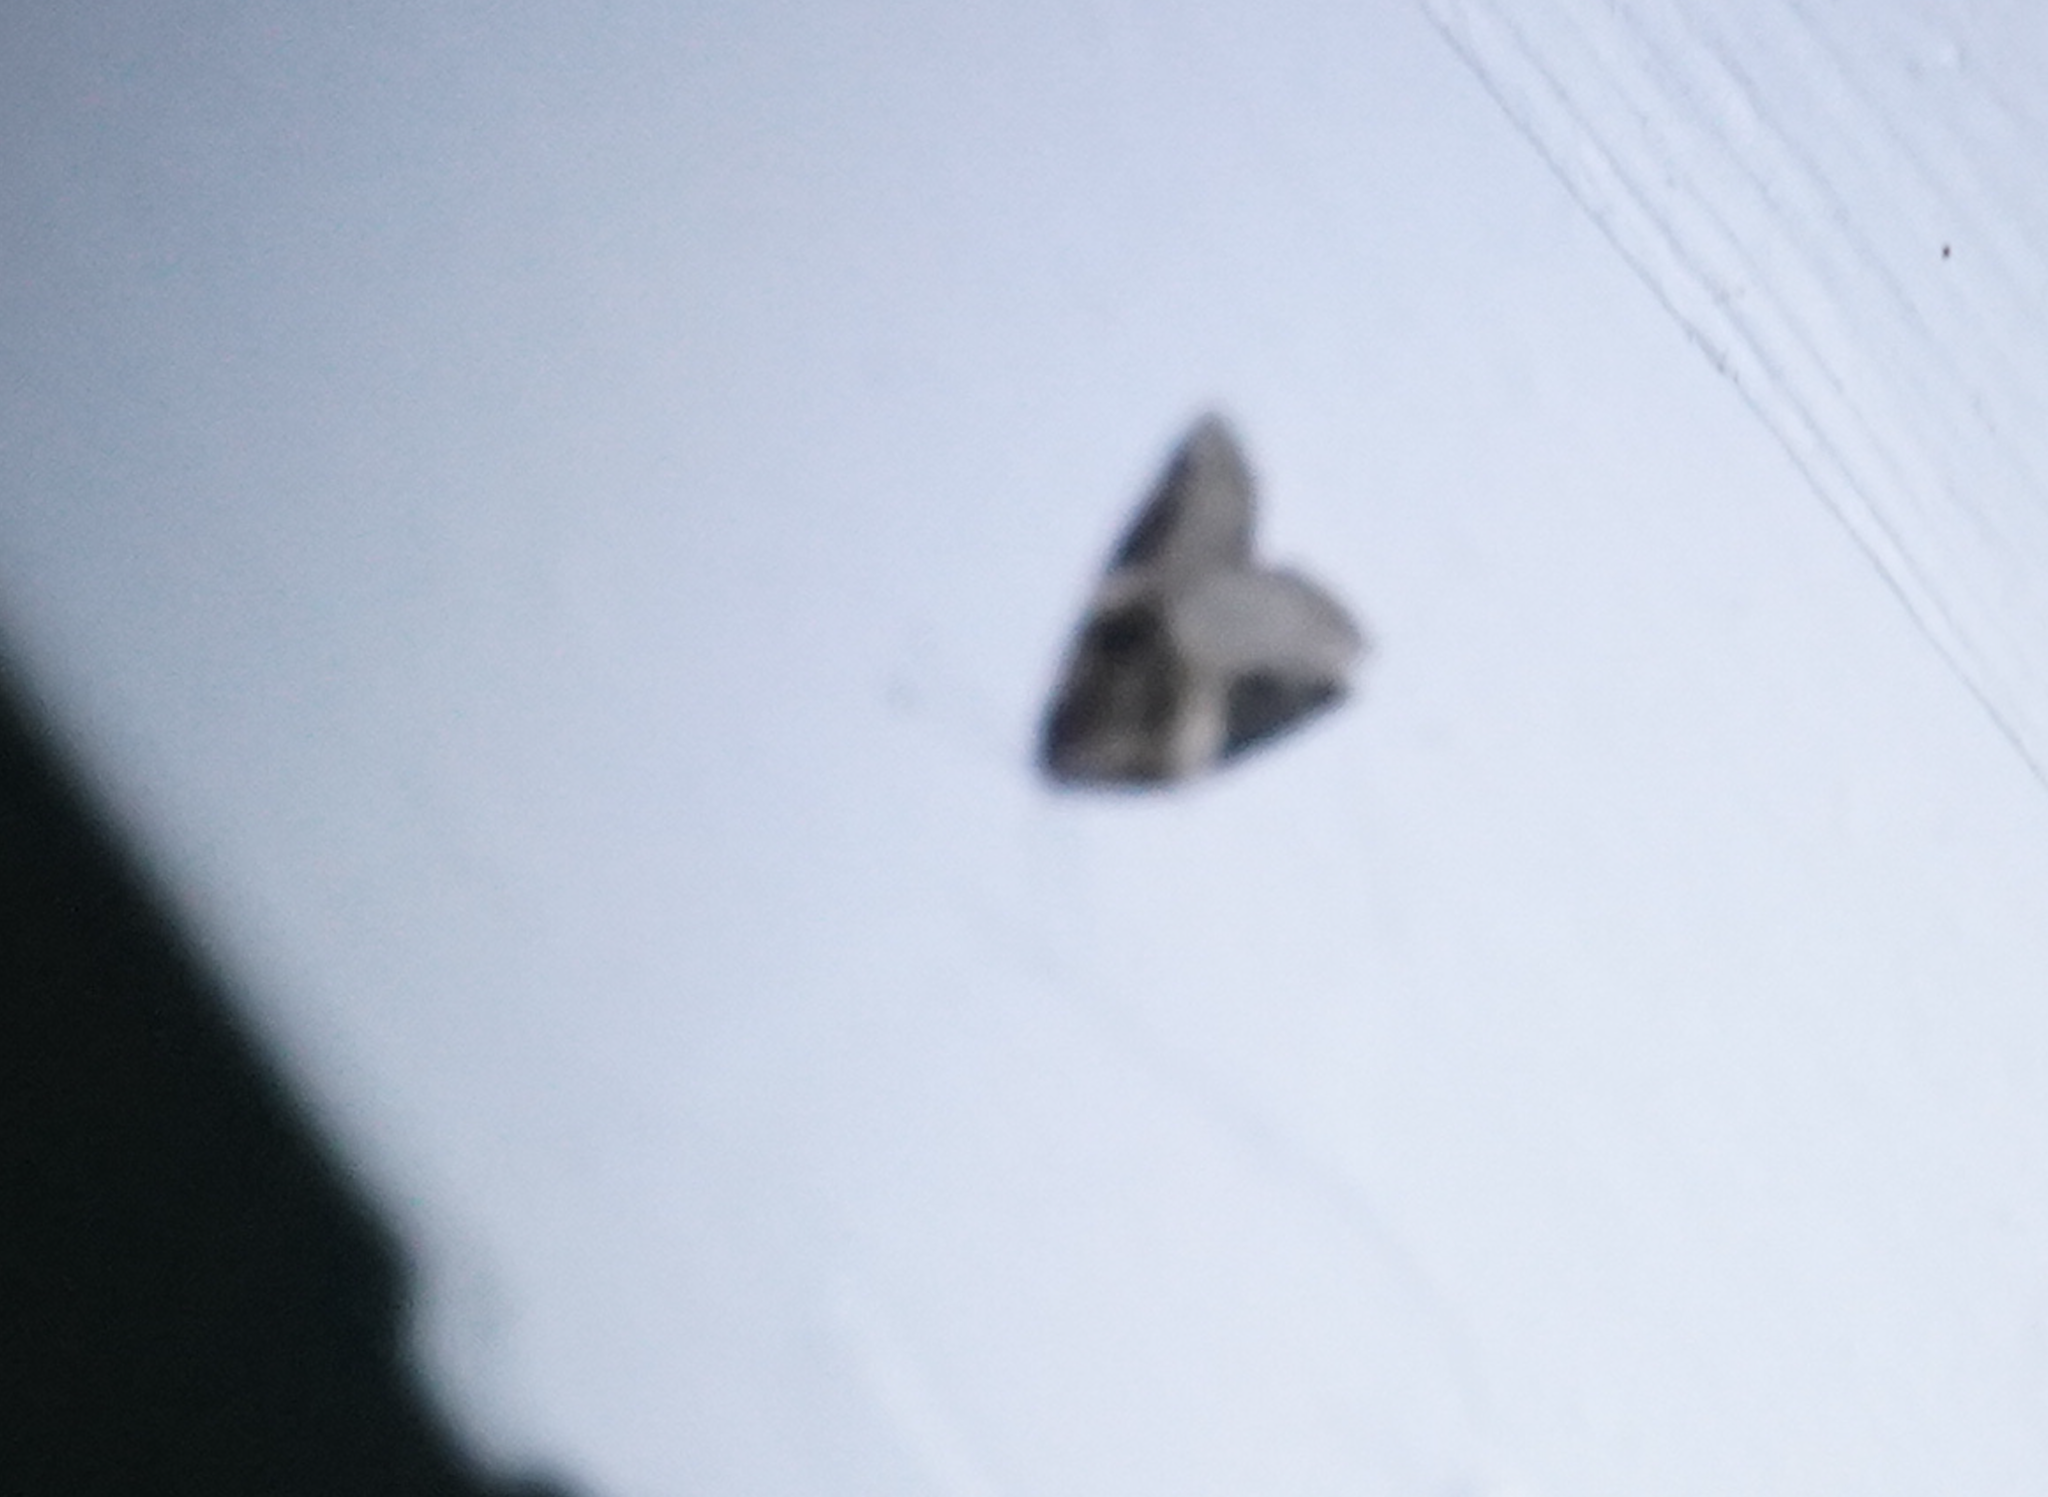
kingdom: Animalia
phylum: Arthropoda
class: Insecta
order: Lepidoptera
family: Noctuidae
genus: Pseudeustrotia
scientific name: Pseudeustrotia carneola
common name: Pink-barred lithacodia moth
